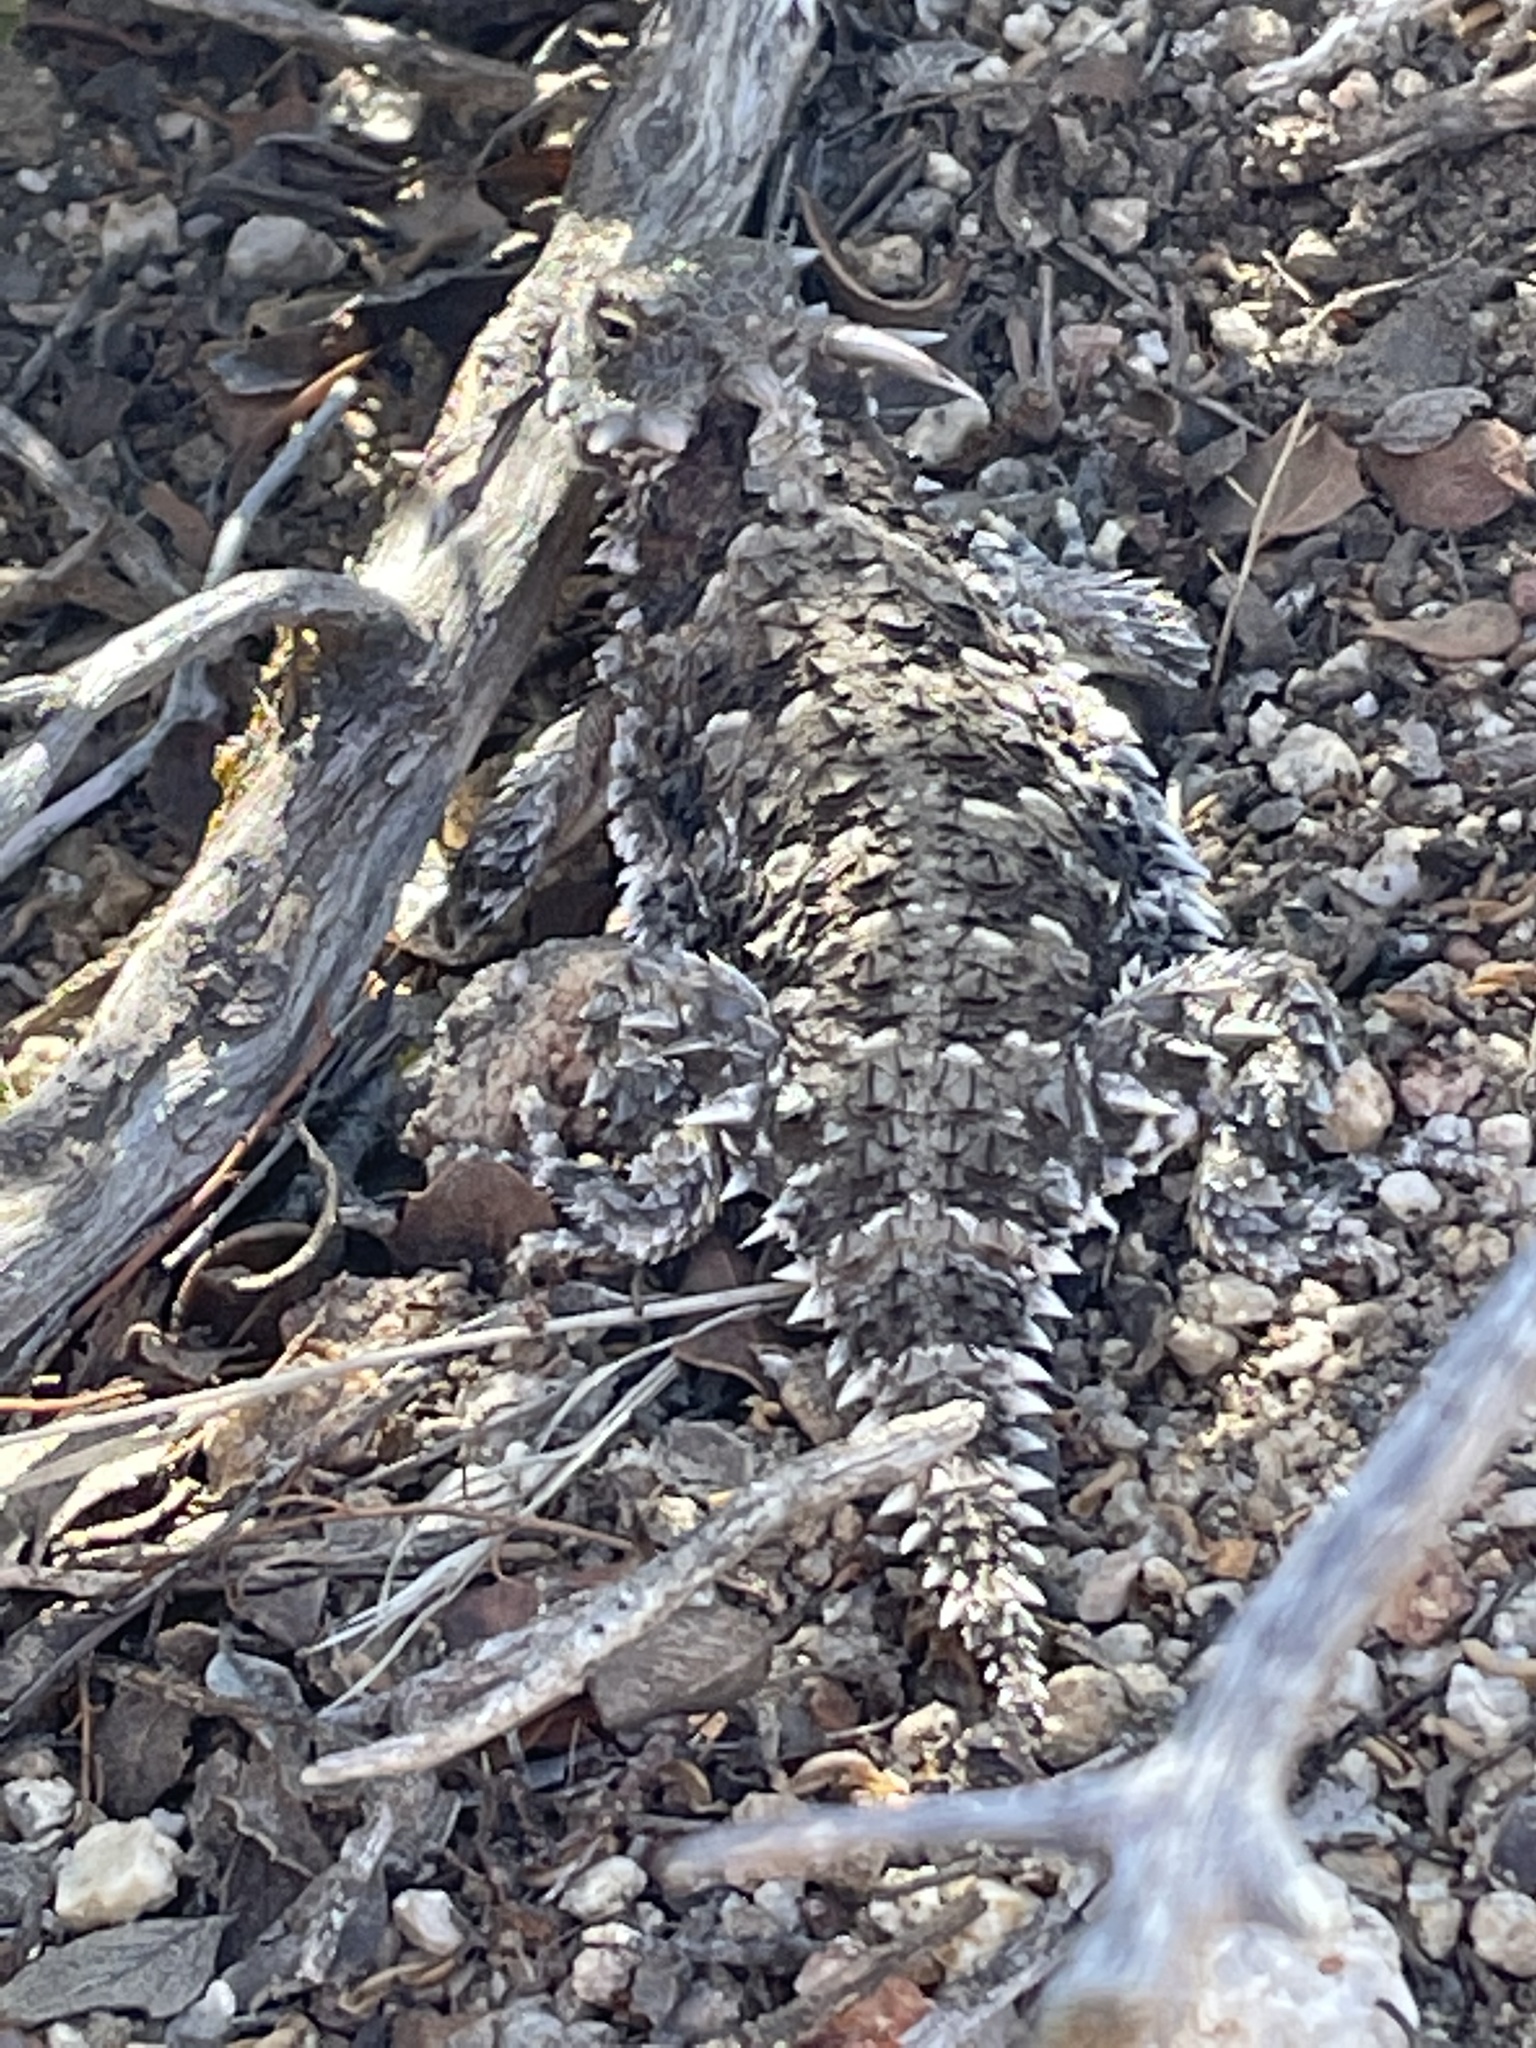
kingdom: Animalia
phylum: Chordata
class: Squamata
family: Phrynosomatidae
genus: Phrynosoma
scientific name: Phrynosoma blainvillii
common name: San diego horned lizard
